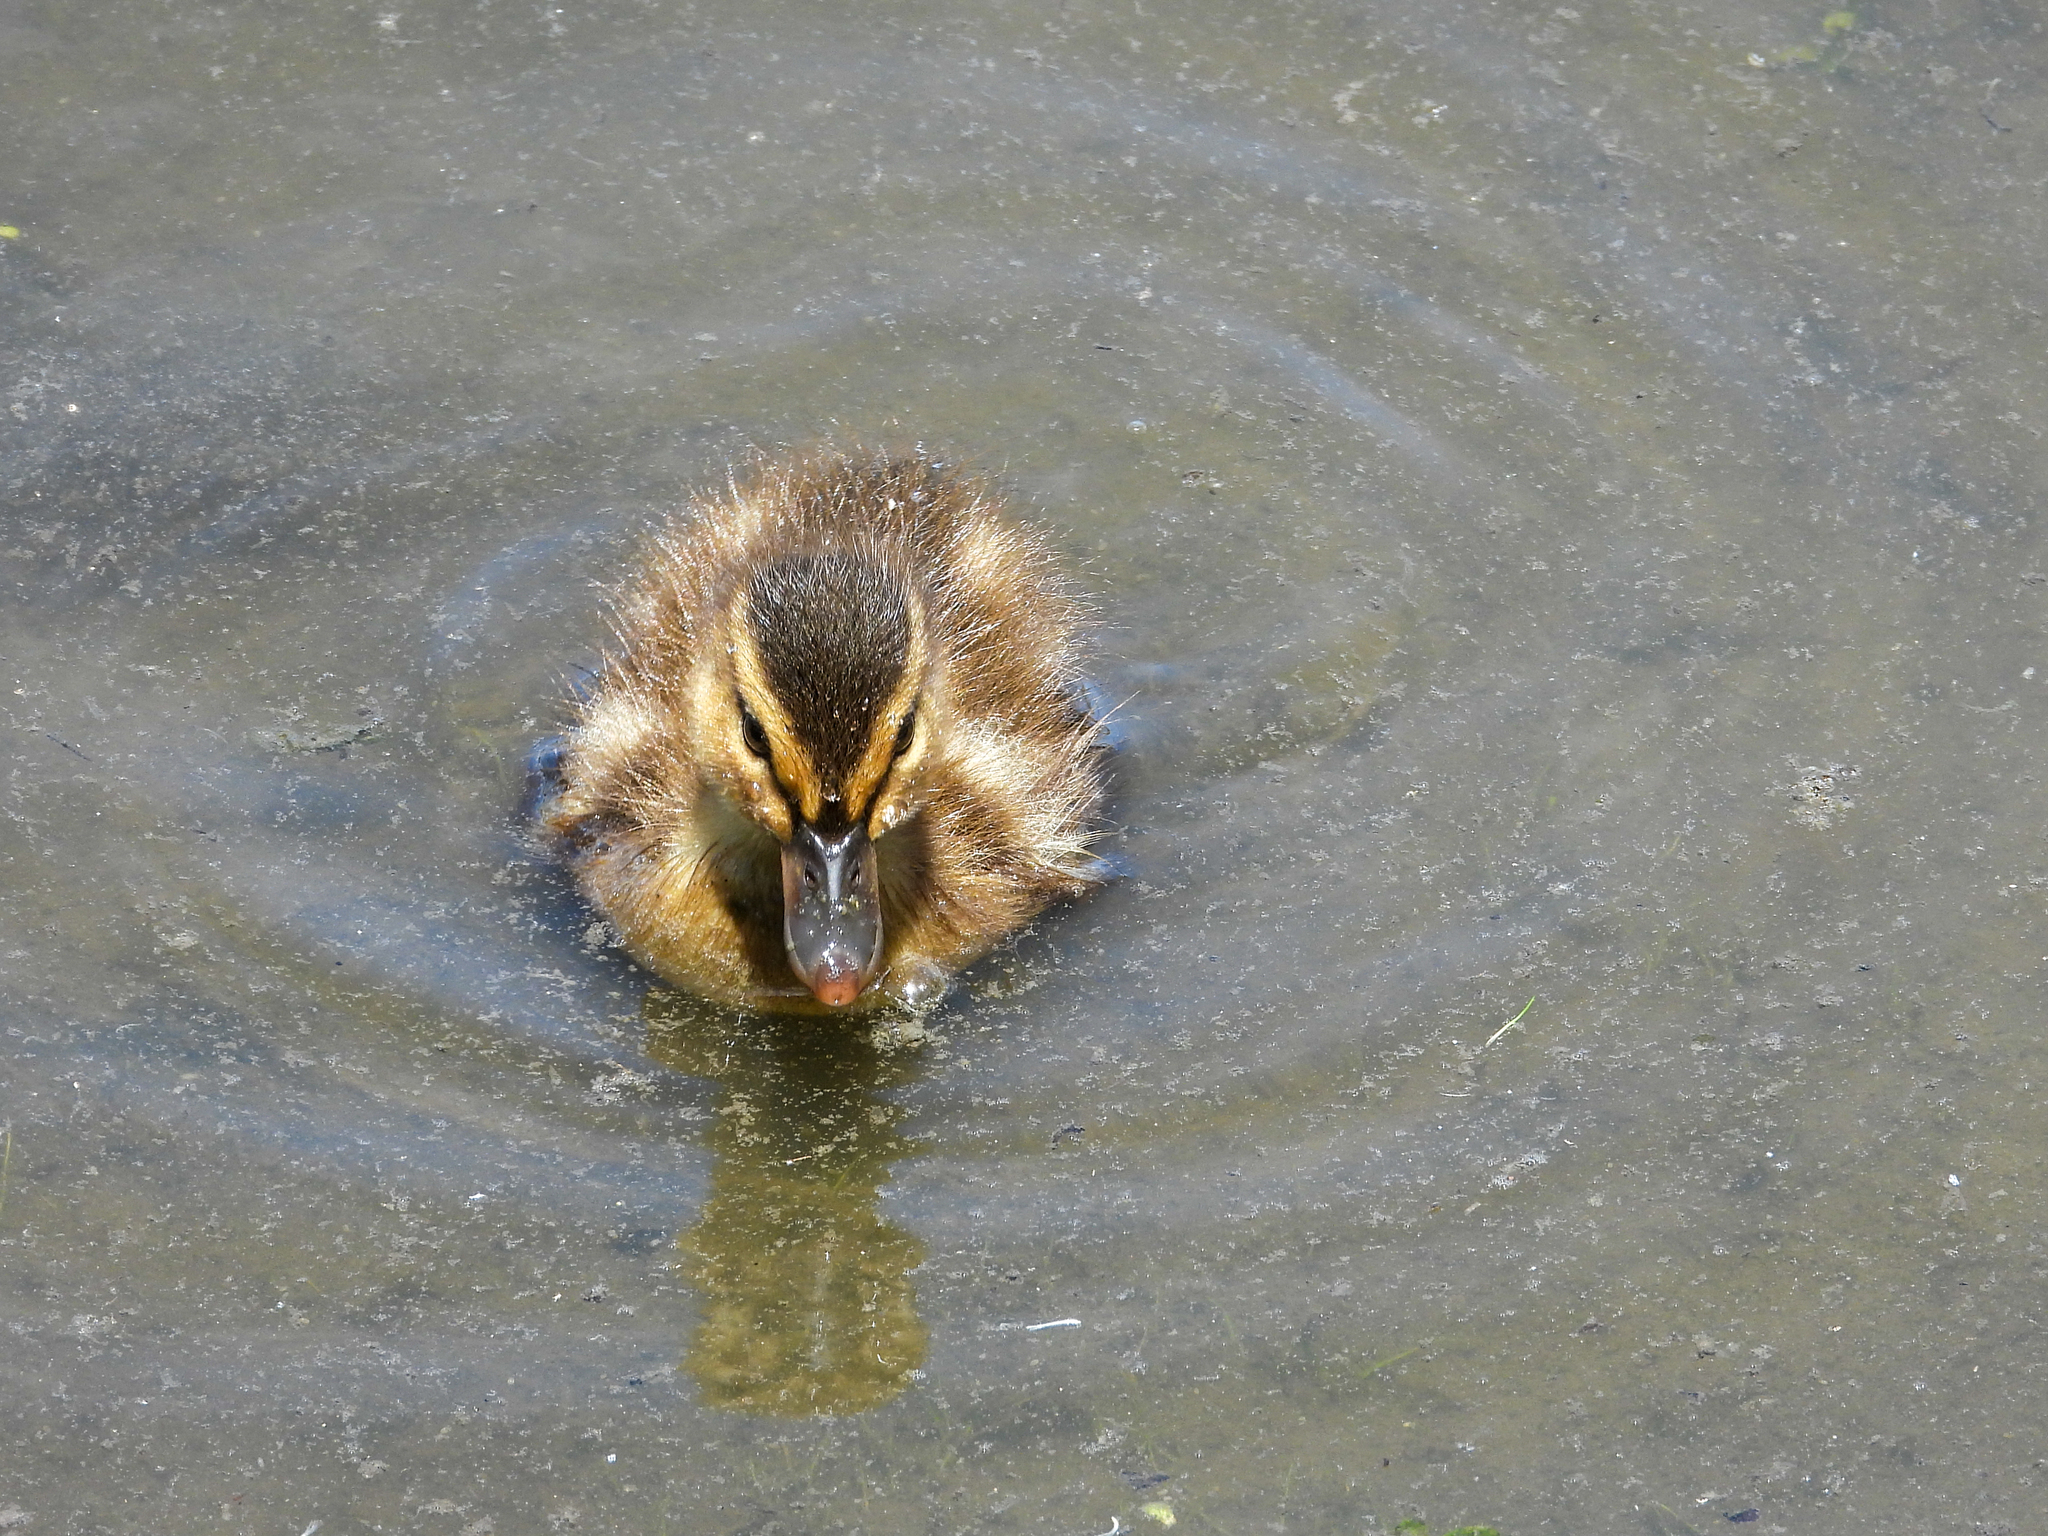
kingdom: Animalia
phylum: Chordata
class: Aves
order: Anseriformes
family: Anatidae
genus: Anas
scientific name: Anas platyrhynchos
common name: Mallard
